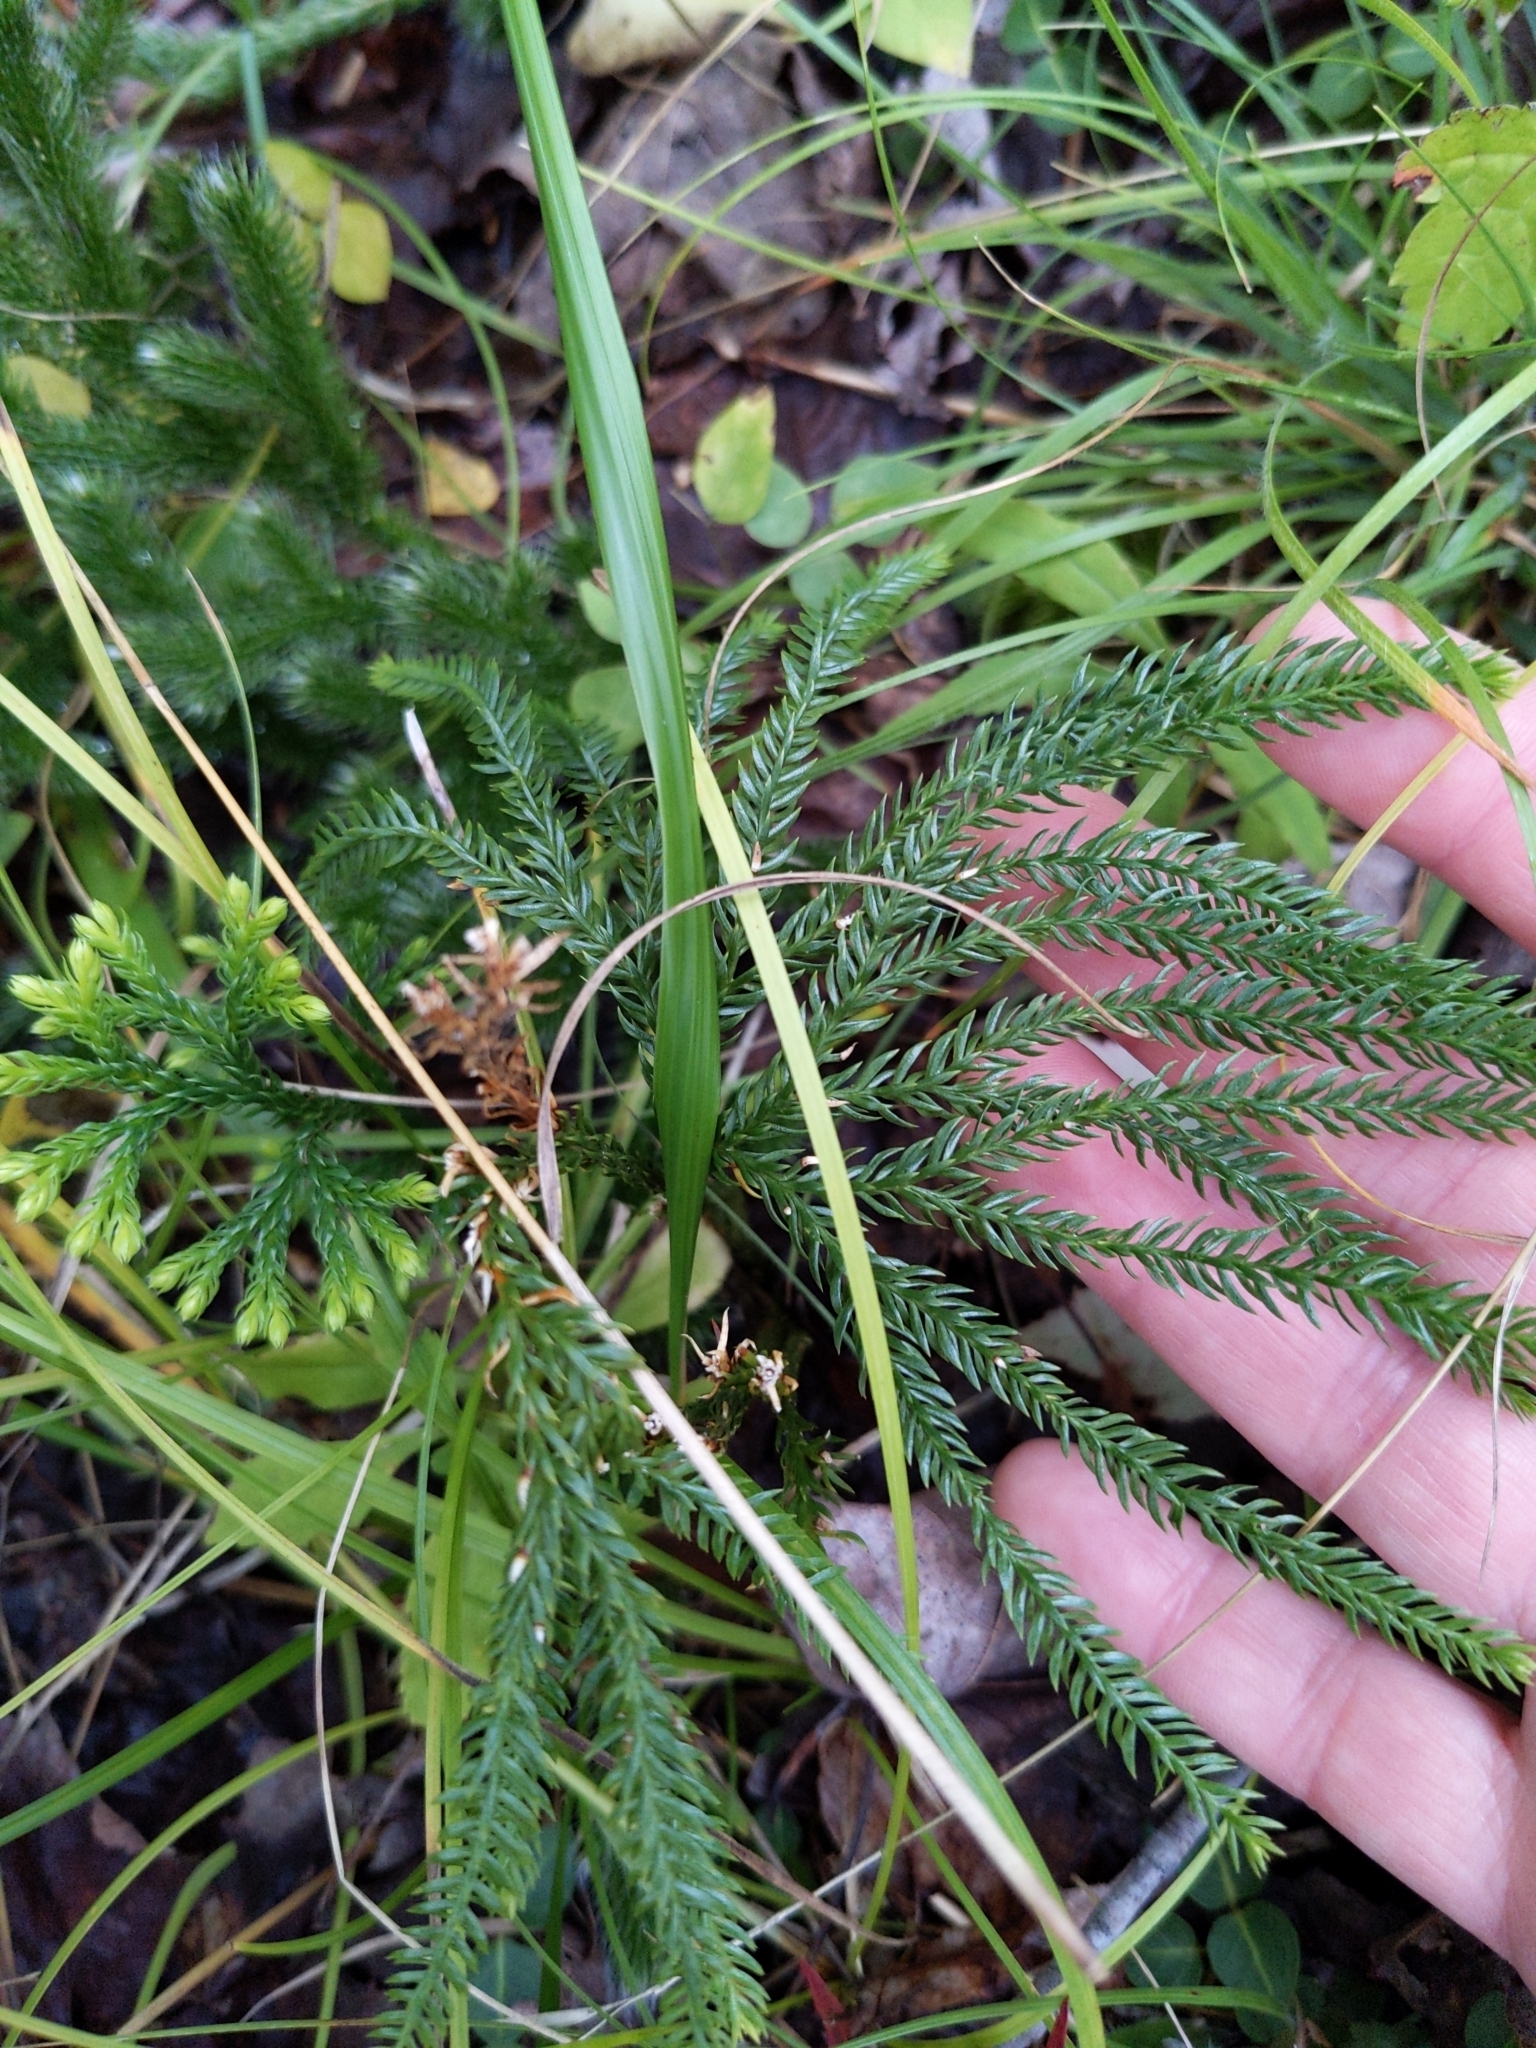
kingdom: Plantae
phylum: Tracheophyta
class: Lycopodiopsida
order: Lycopodiales
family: Lycopodiaceae
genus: Dendrolycopodium
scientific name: Dendrolycopodium obscurum
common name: Common ground-pine
